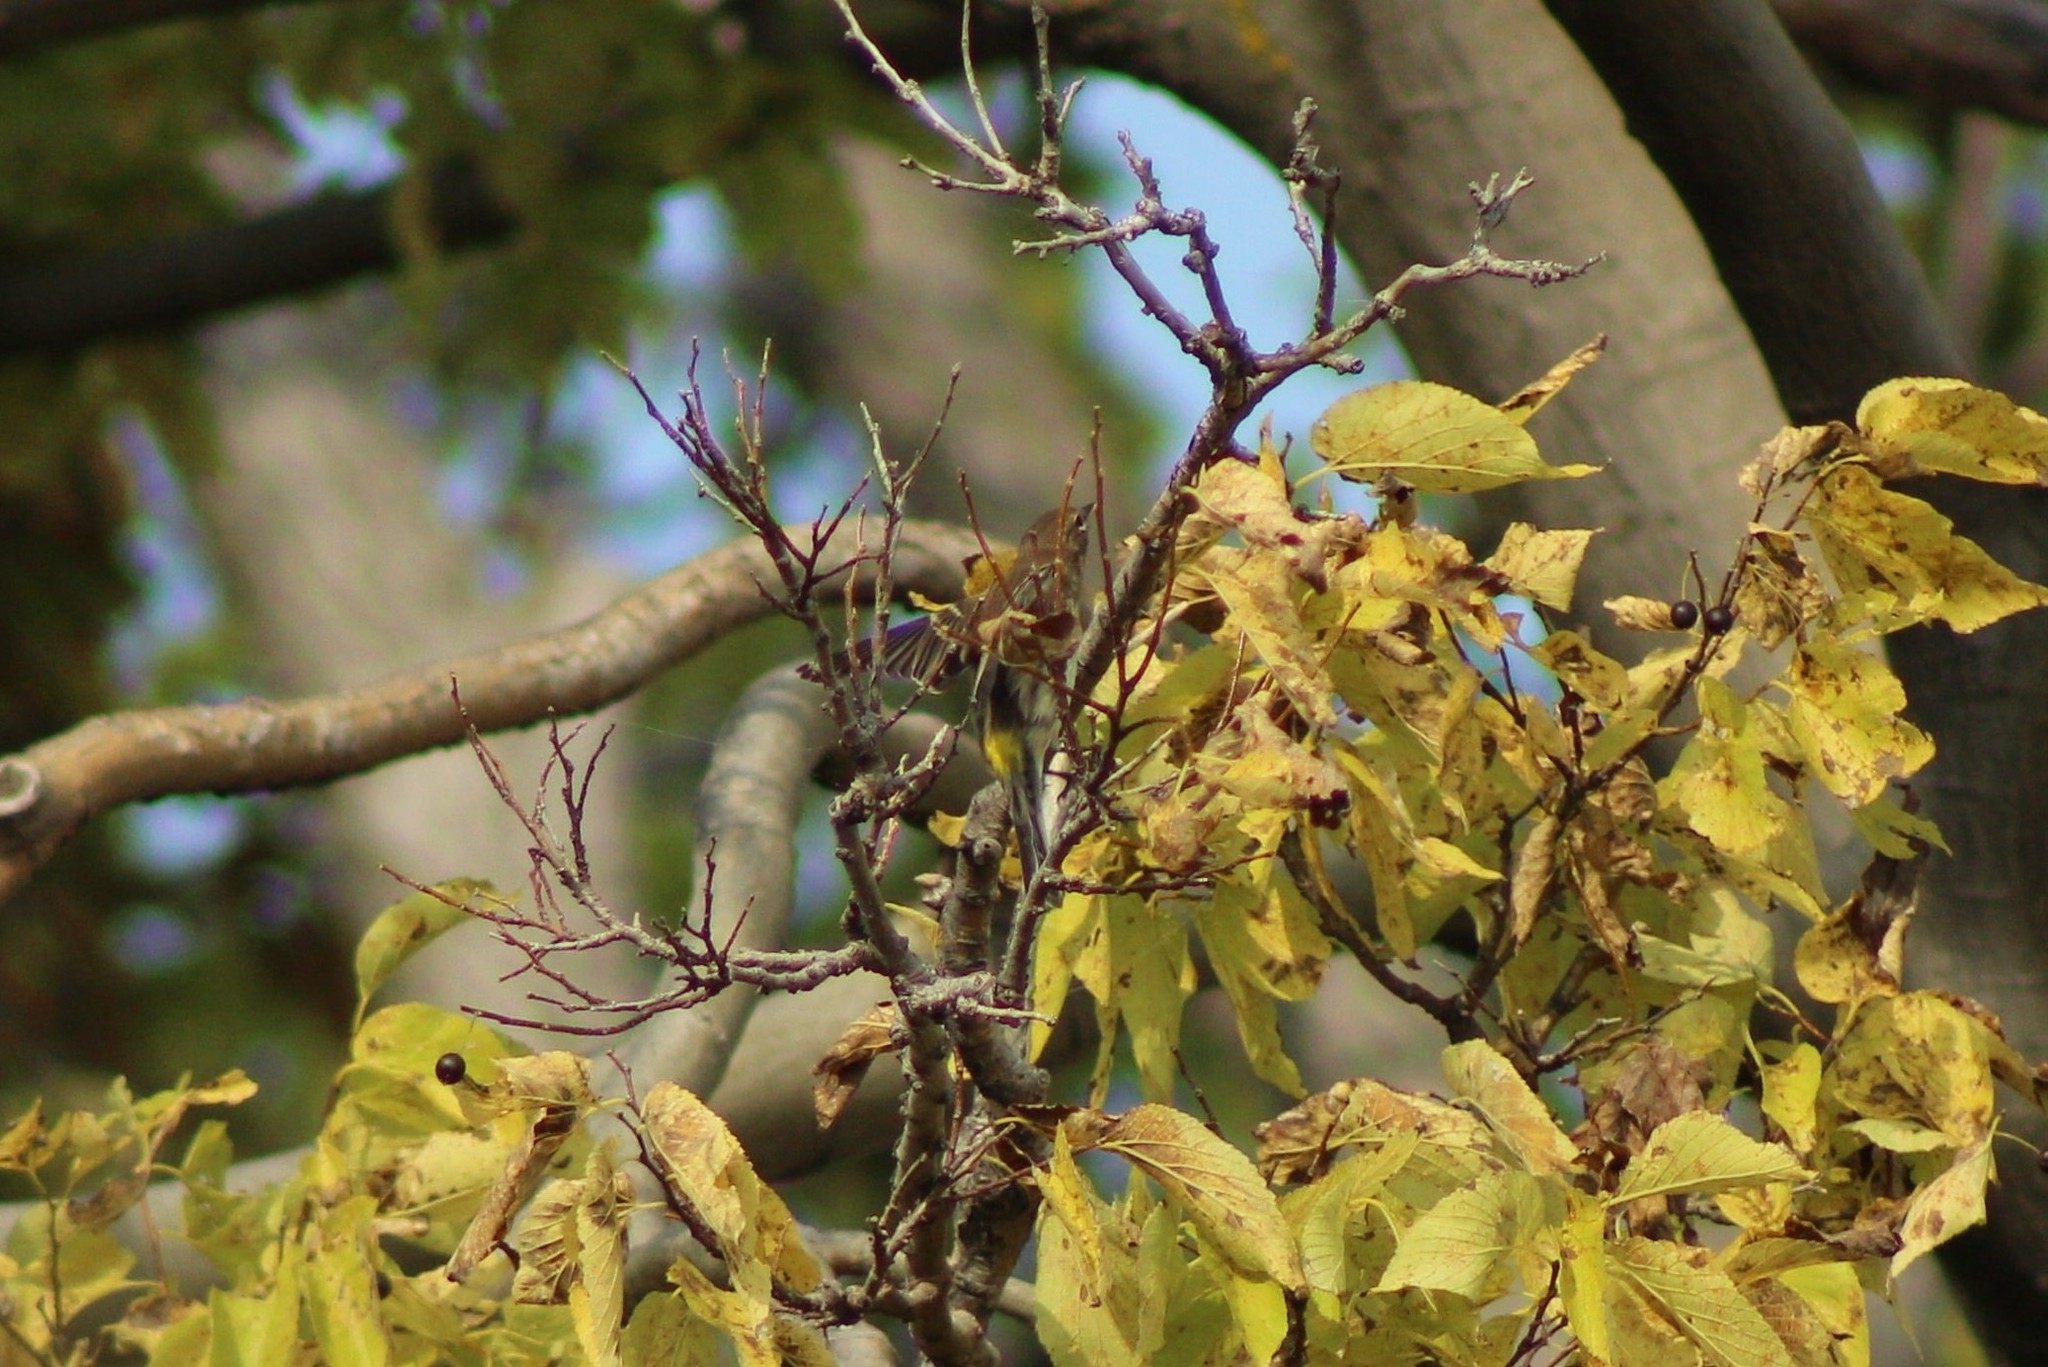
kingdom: Animalia
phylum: Chordata
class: Aves
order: Passeriformes
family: Parulidae
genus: Setophaga
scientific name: Setophaga coronata
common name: Myrtle warbler
